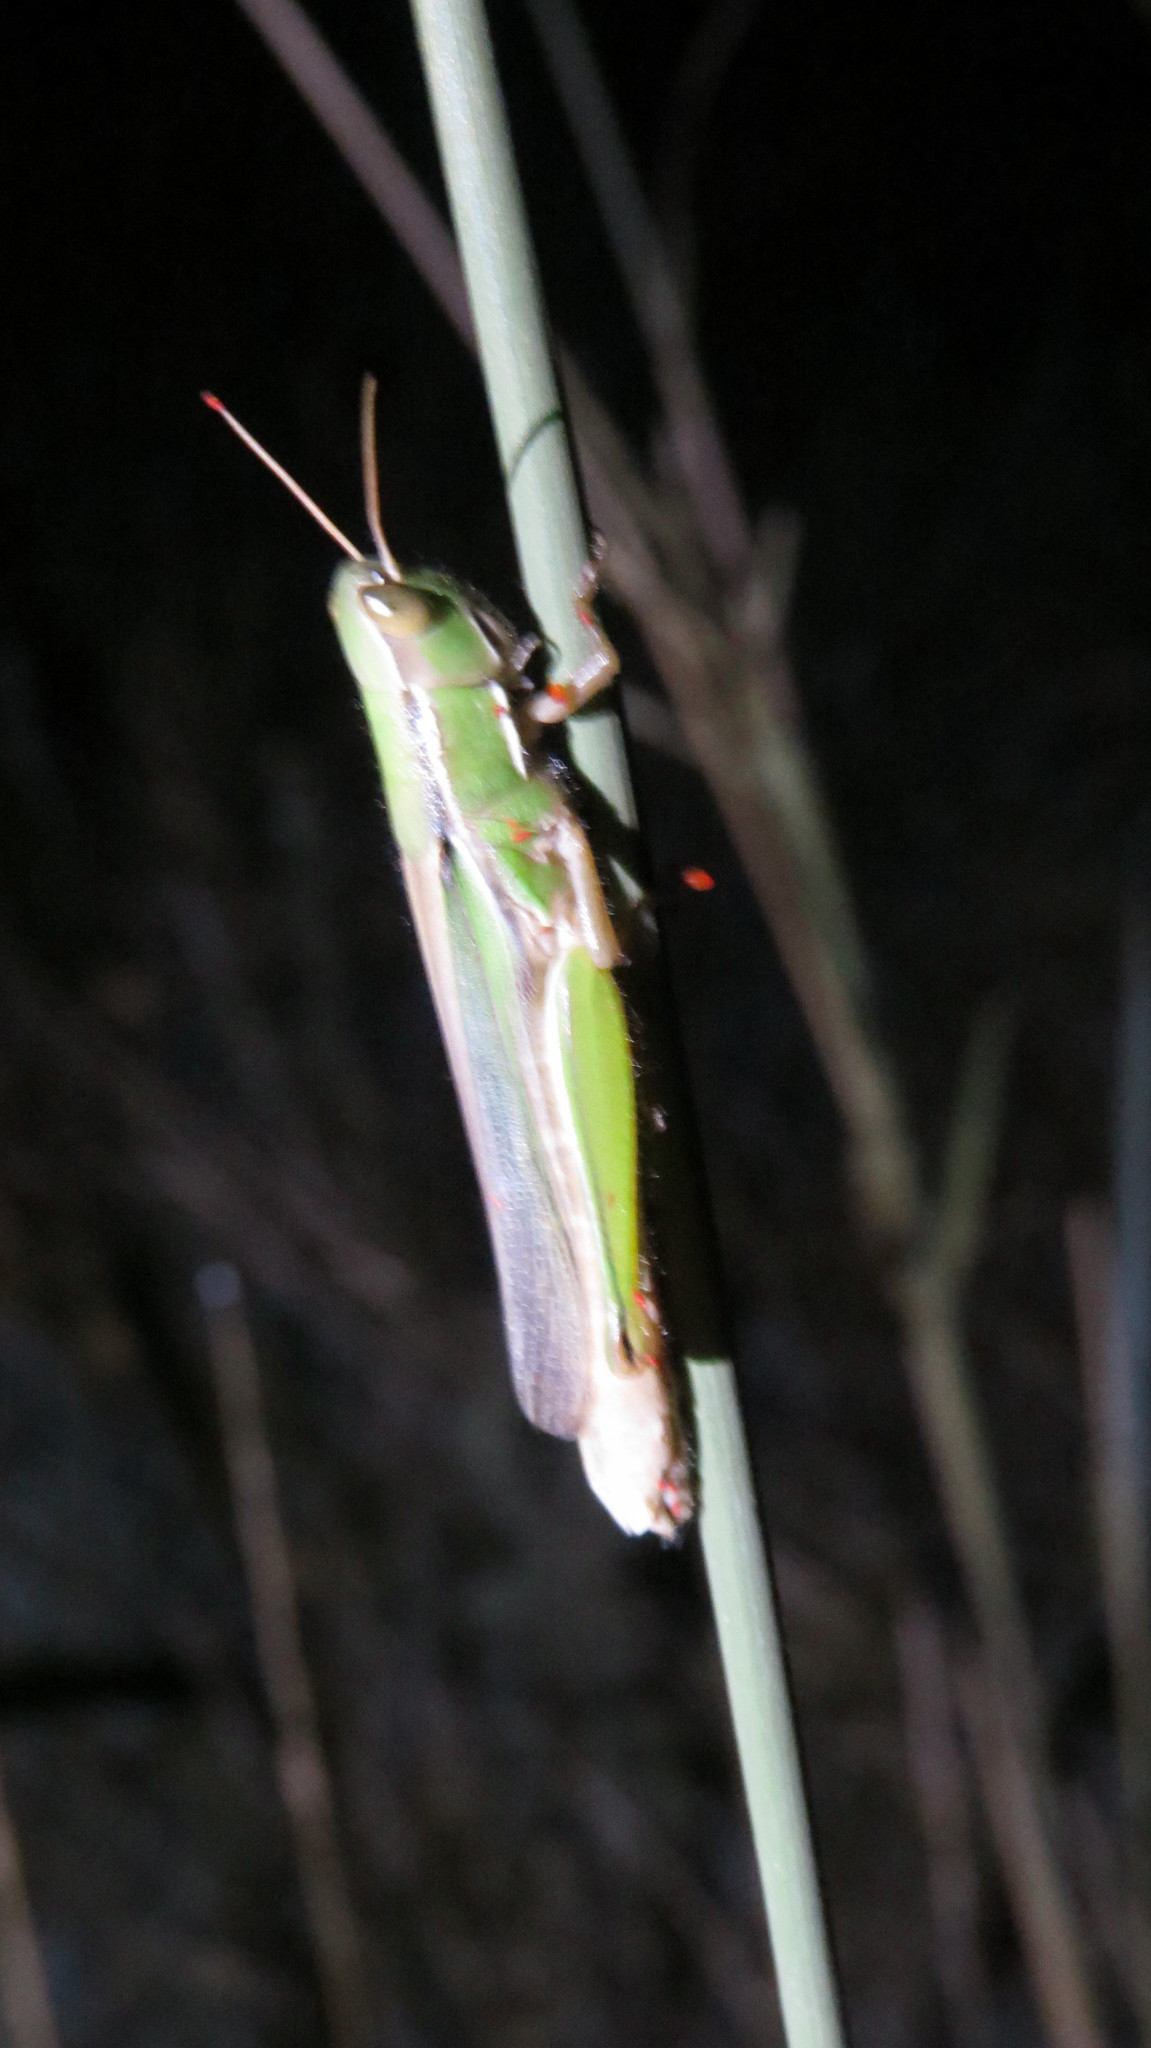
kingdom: Animalia
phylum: Arthropoda
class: Insecta
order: Orthoptera
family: Acrididae
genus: Aleuas
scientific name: Aleuas lineatus
